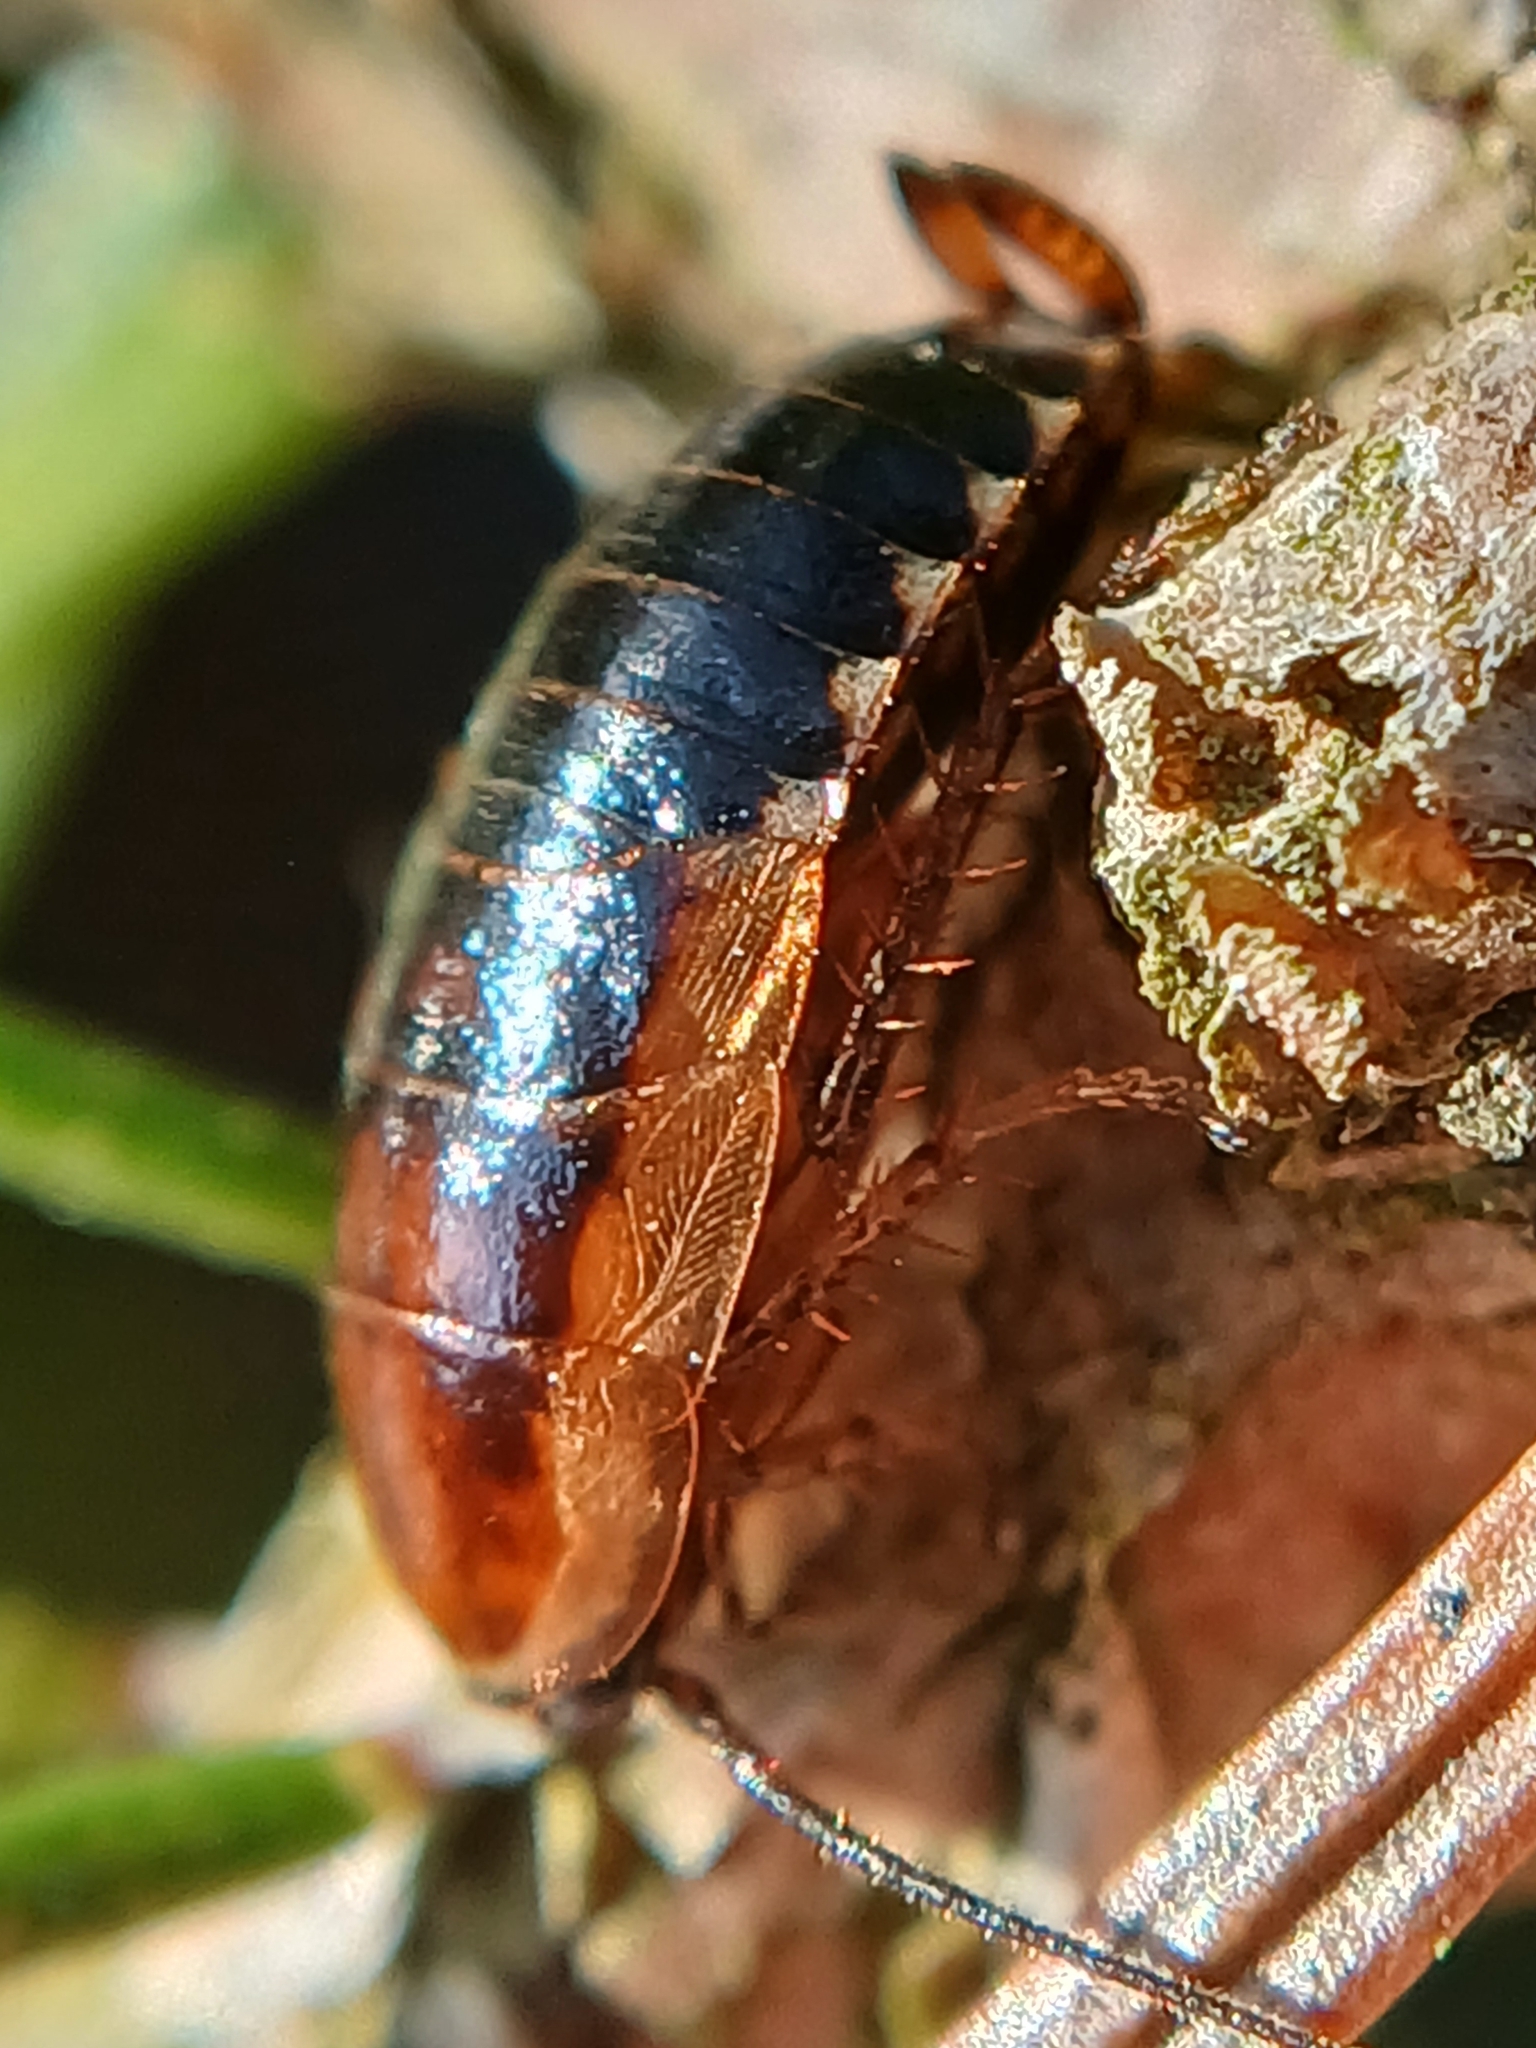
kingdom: Animalia
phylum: Arthropoda
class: Insecta
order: Blattodea
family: Ectobiidae
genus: Ectobius
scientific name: Ectobius sylvestris
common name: Forest cockroach
